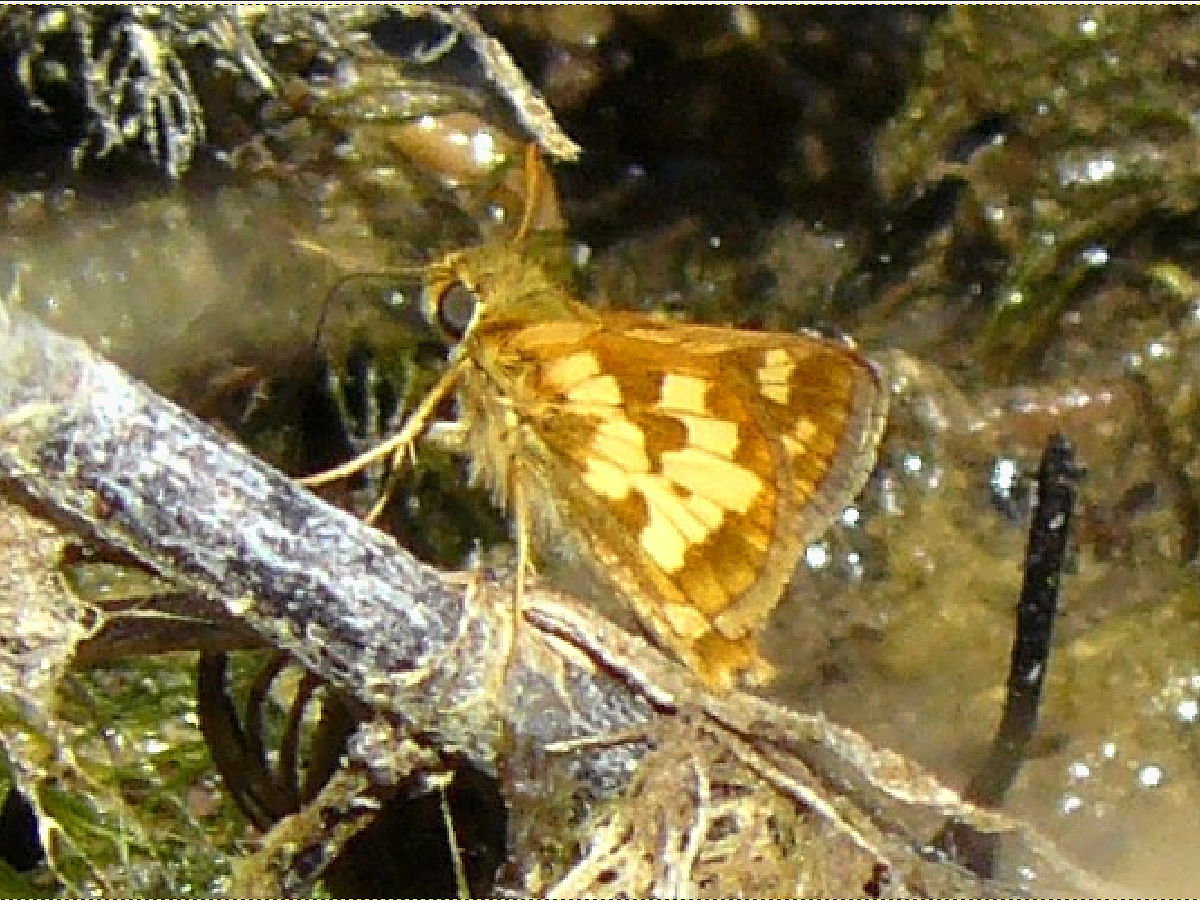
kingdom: Animalia
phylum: Arthropoda
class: Insecta
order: Lepidoptera
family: Hesperiidae
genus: Polites
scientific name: Polites coras
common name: Peck's skipper
